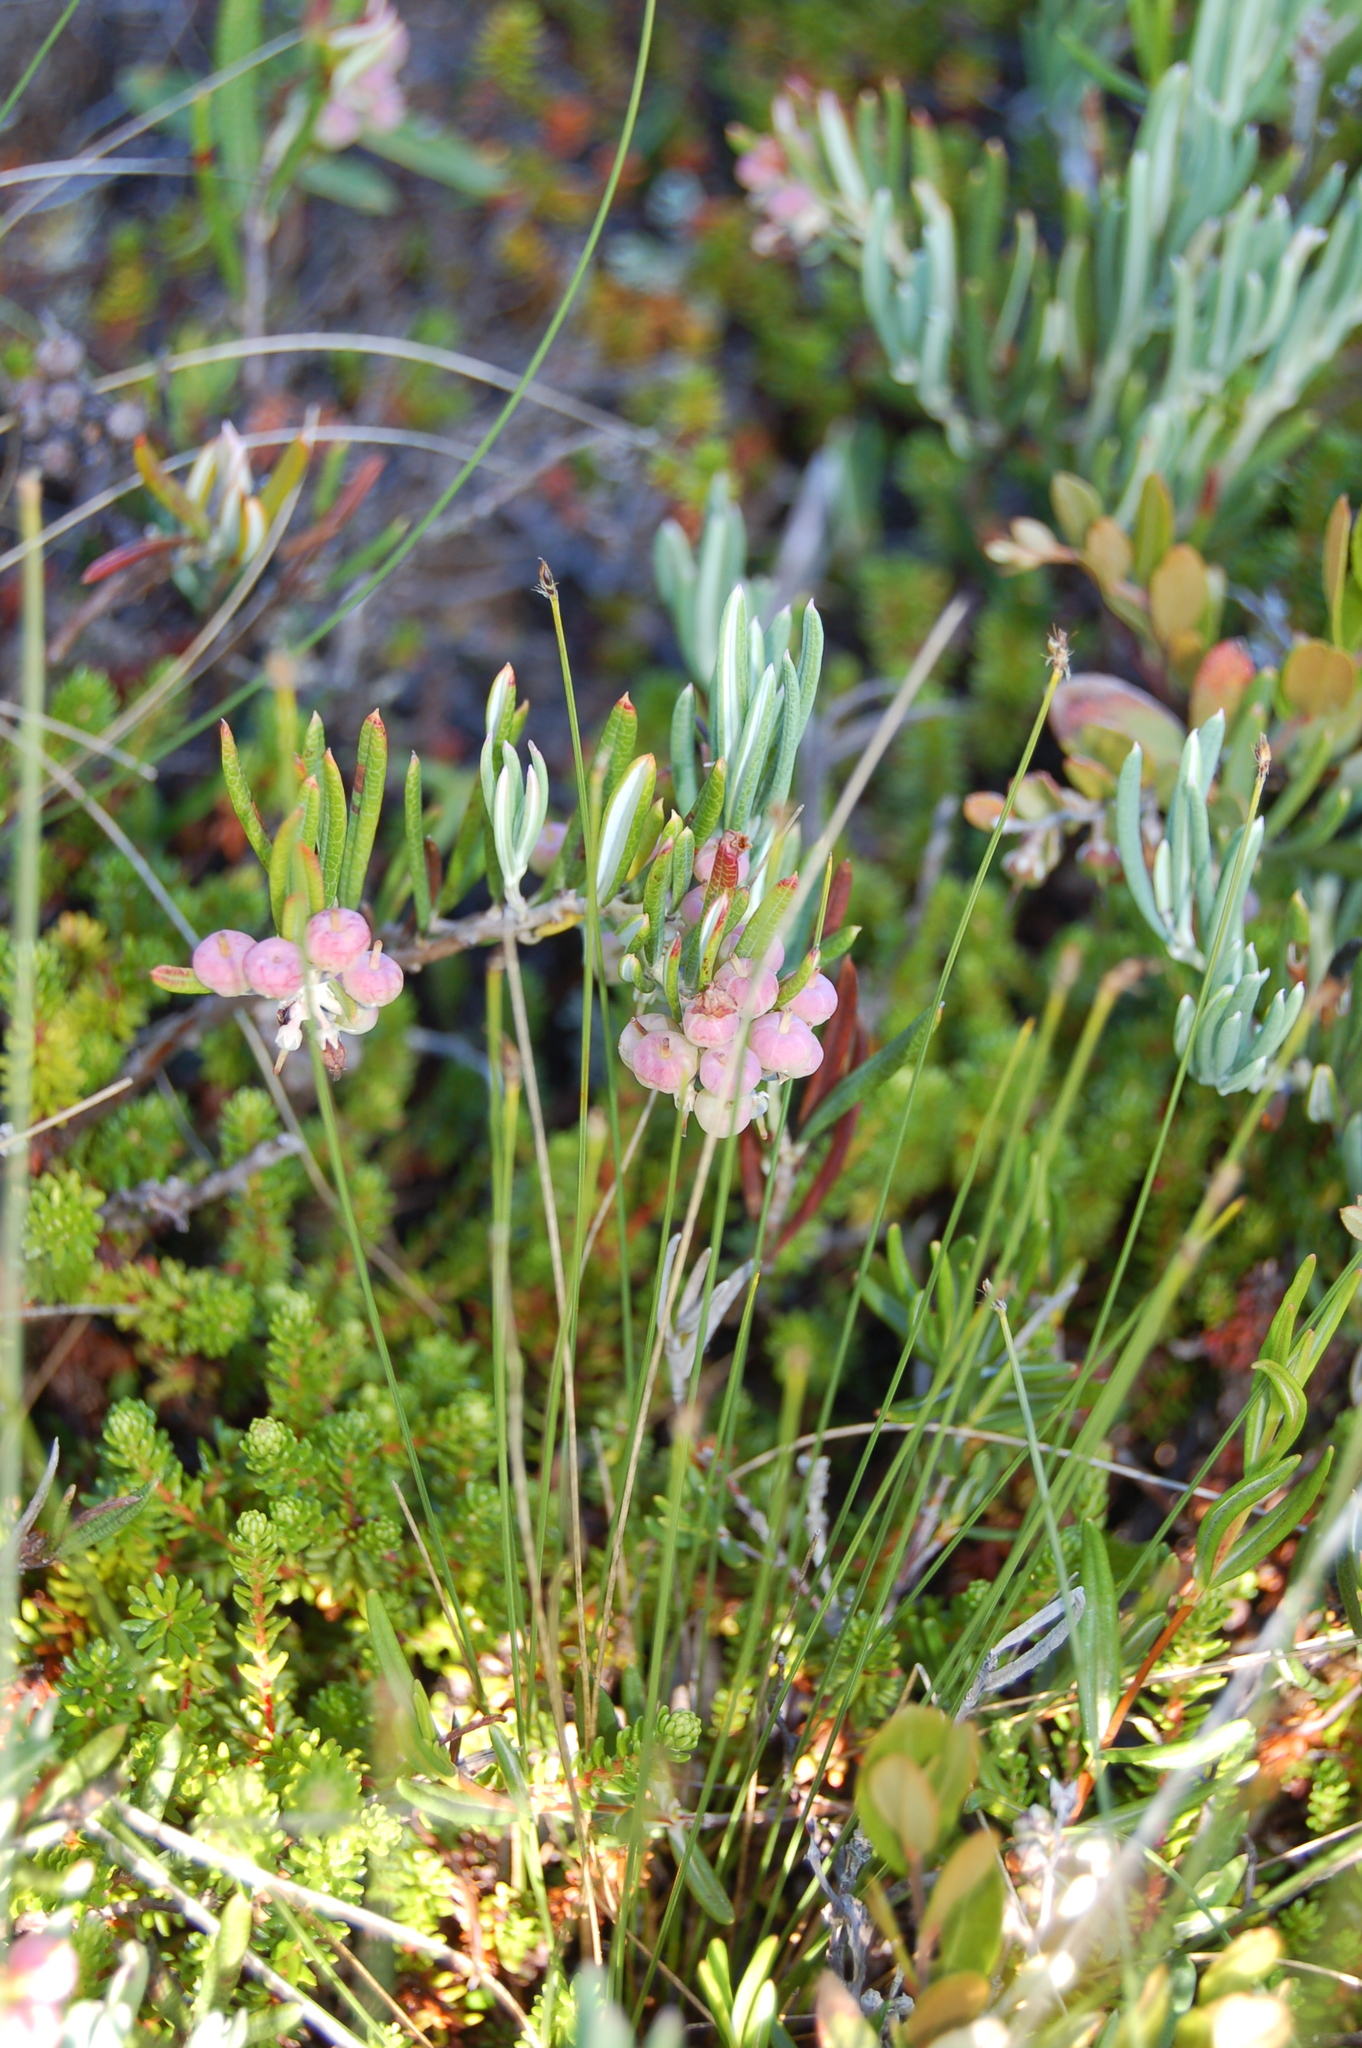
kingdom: Plantae
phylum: Tracheophyta
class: Magnoliopsida
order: Ericales
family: Ericaceae
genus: Andromeda
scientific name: Andromeda polifolia
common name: Bog-rosemary
